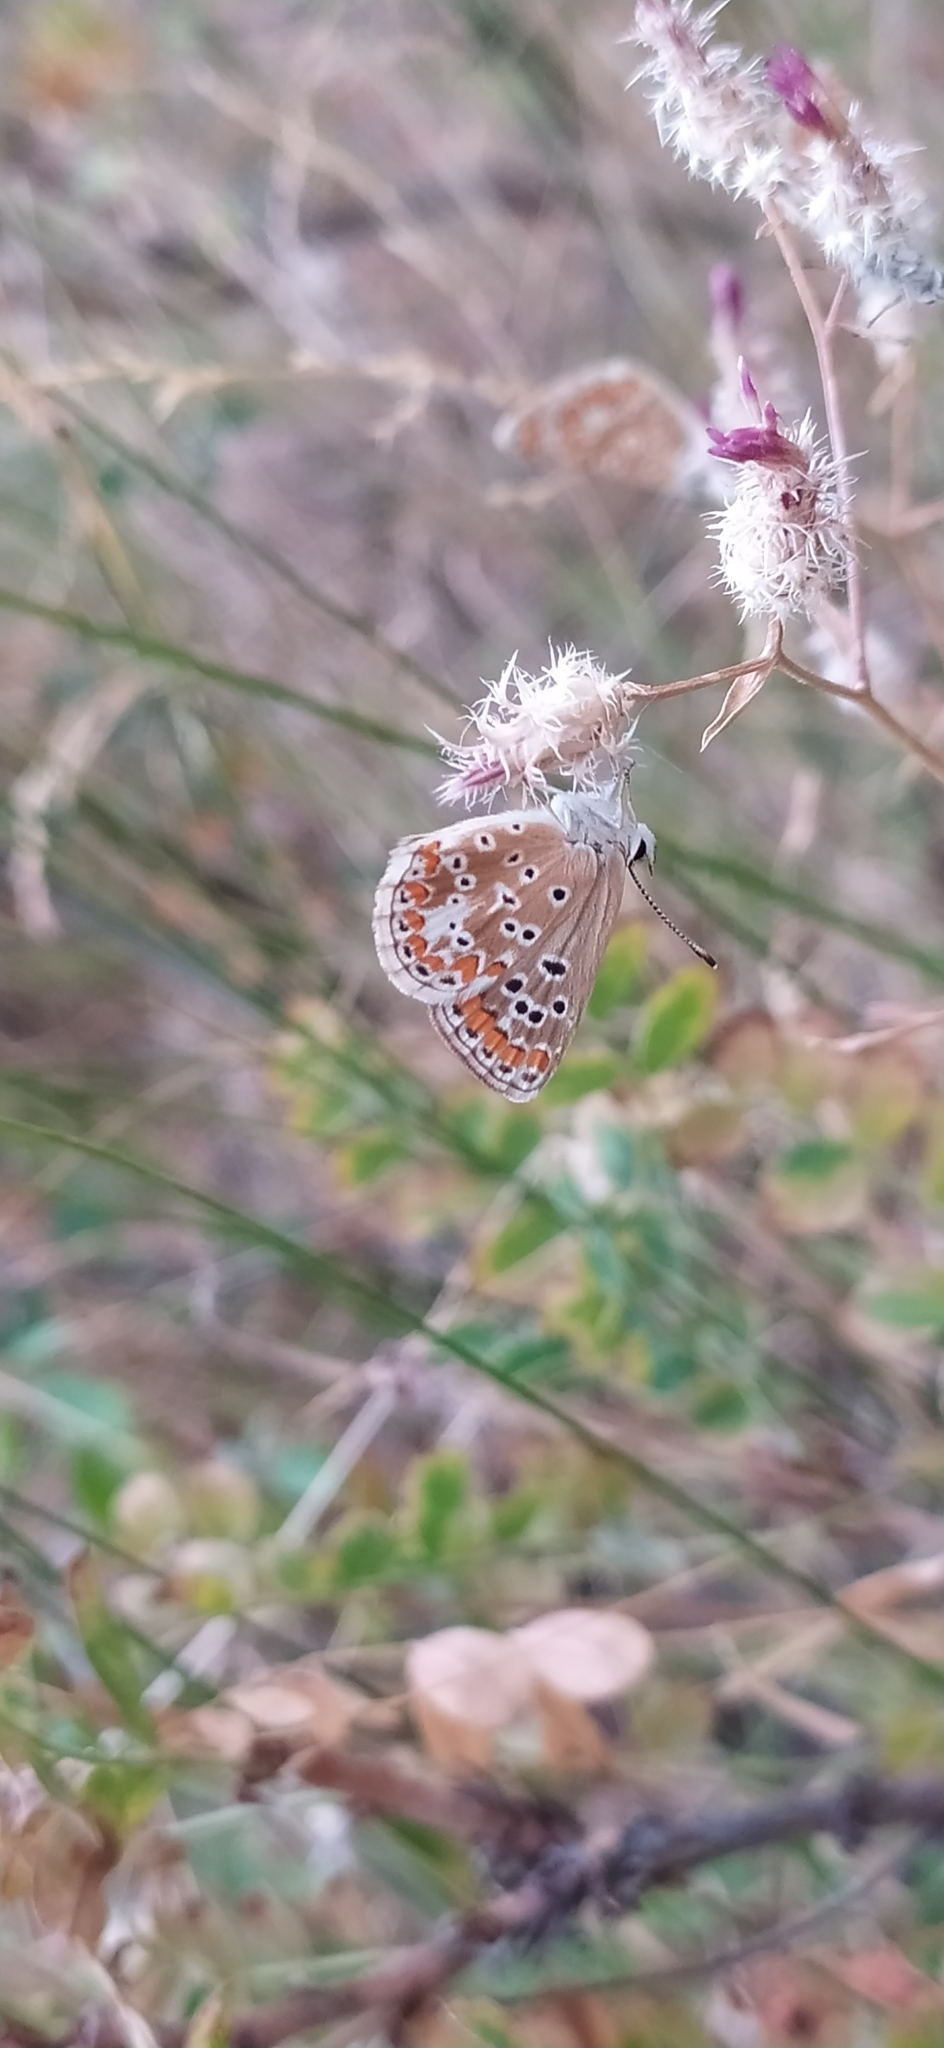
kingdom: Animalia
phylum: Arthropoda
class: Insecta
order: Lepidoptera
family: Lycaenidae
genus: Aricia
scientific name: Aricia agestis
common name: Brown argus
